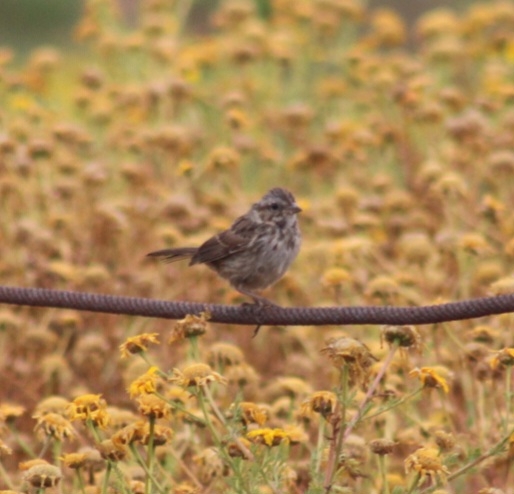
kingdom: Animalia
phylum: Chordata
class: Aves
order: Passeriformes
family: Passerellidae
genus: Melospiza
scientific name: Melospiza melodia
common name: Song sparrow
